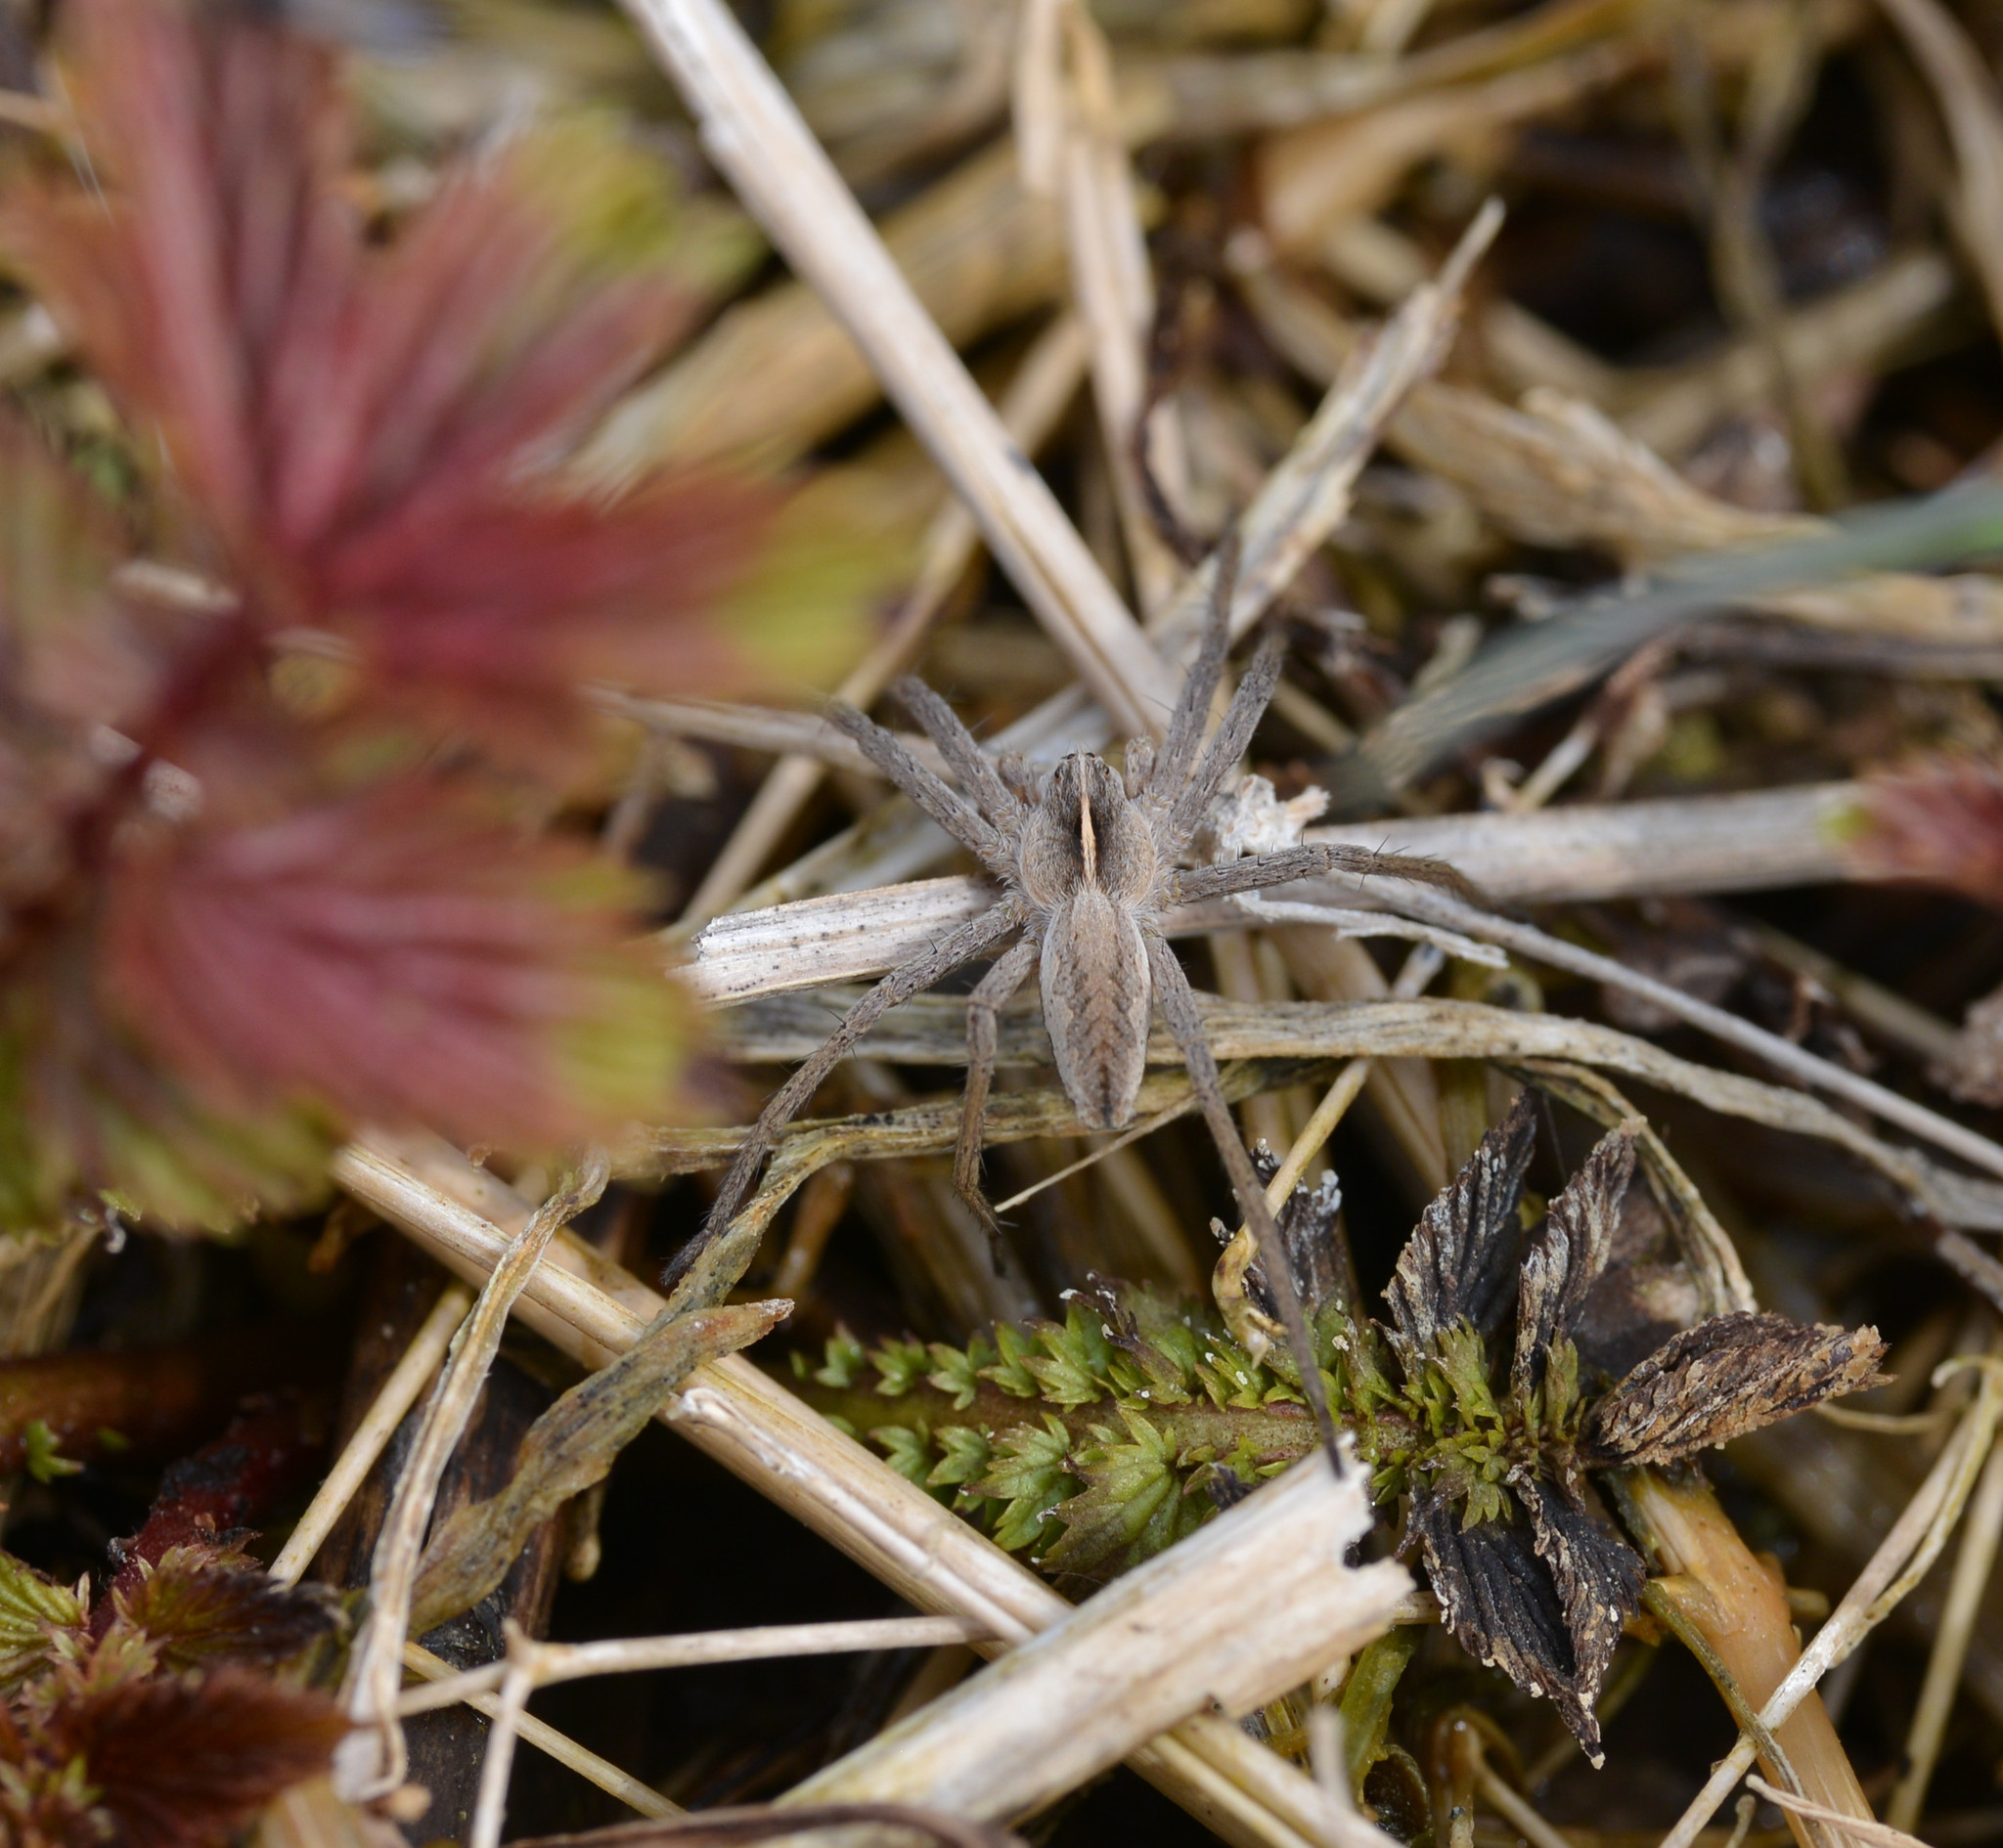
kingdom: Animalia
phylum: Arthropoda
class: Arachnida
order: Araneae
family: Pisauridae
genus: Pisaura
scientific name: Pisaura mirabilis
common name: Tent spider
